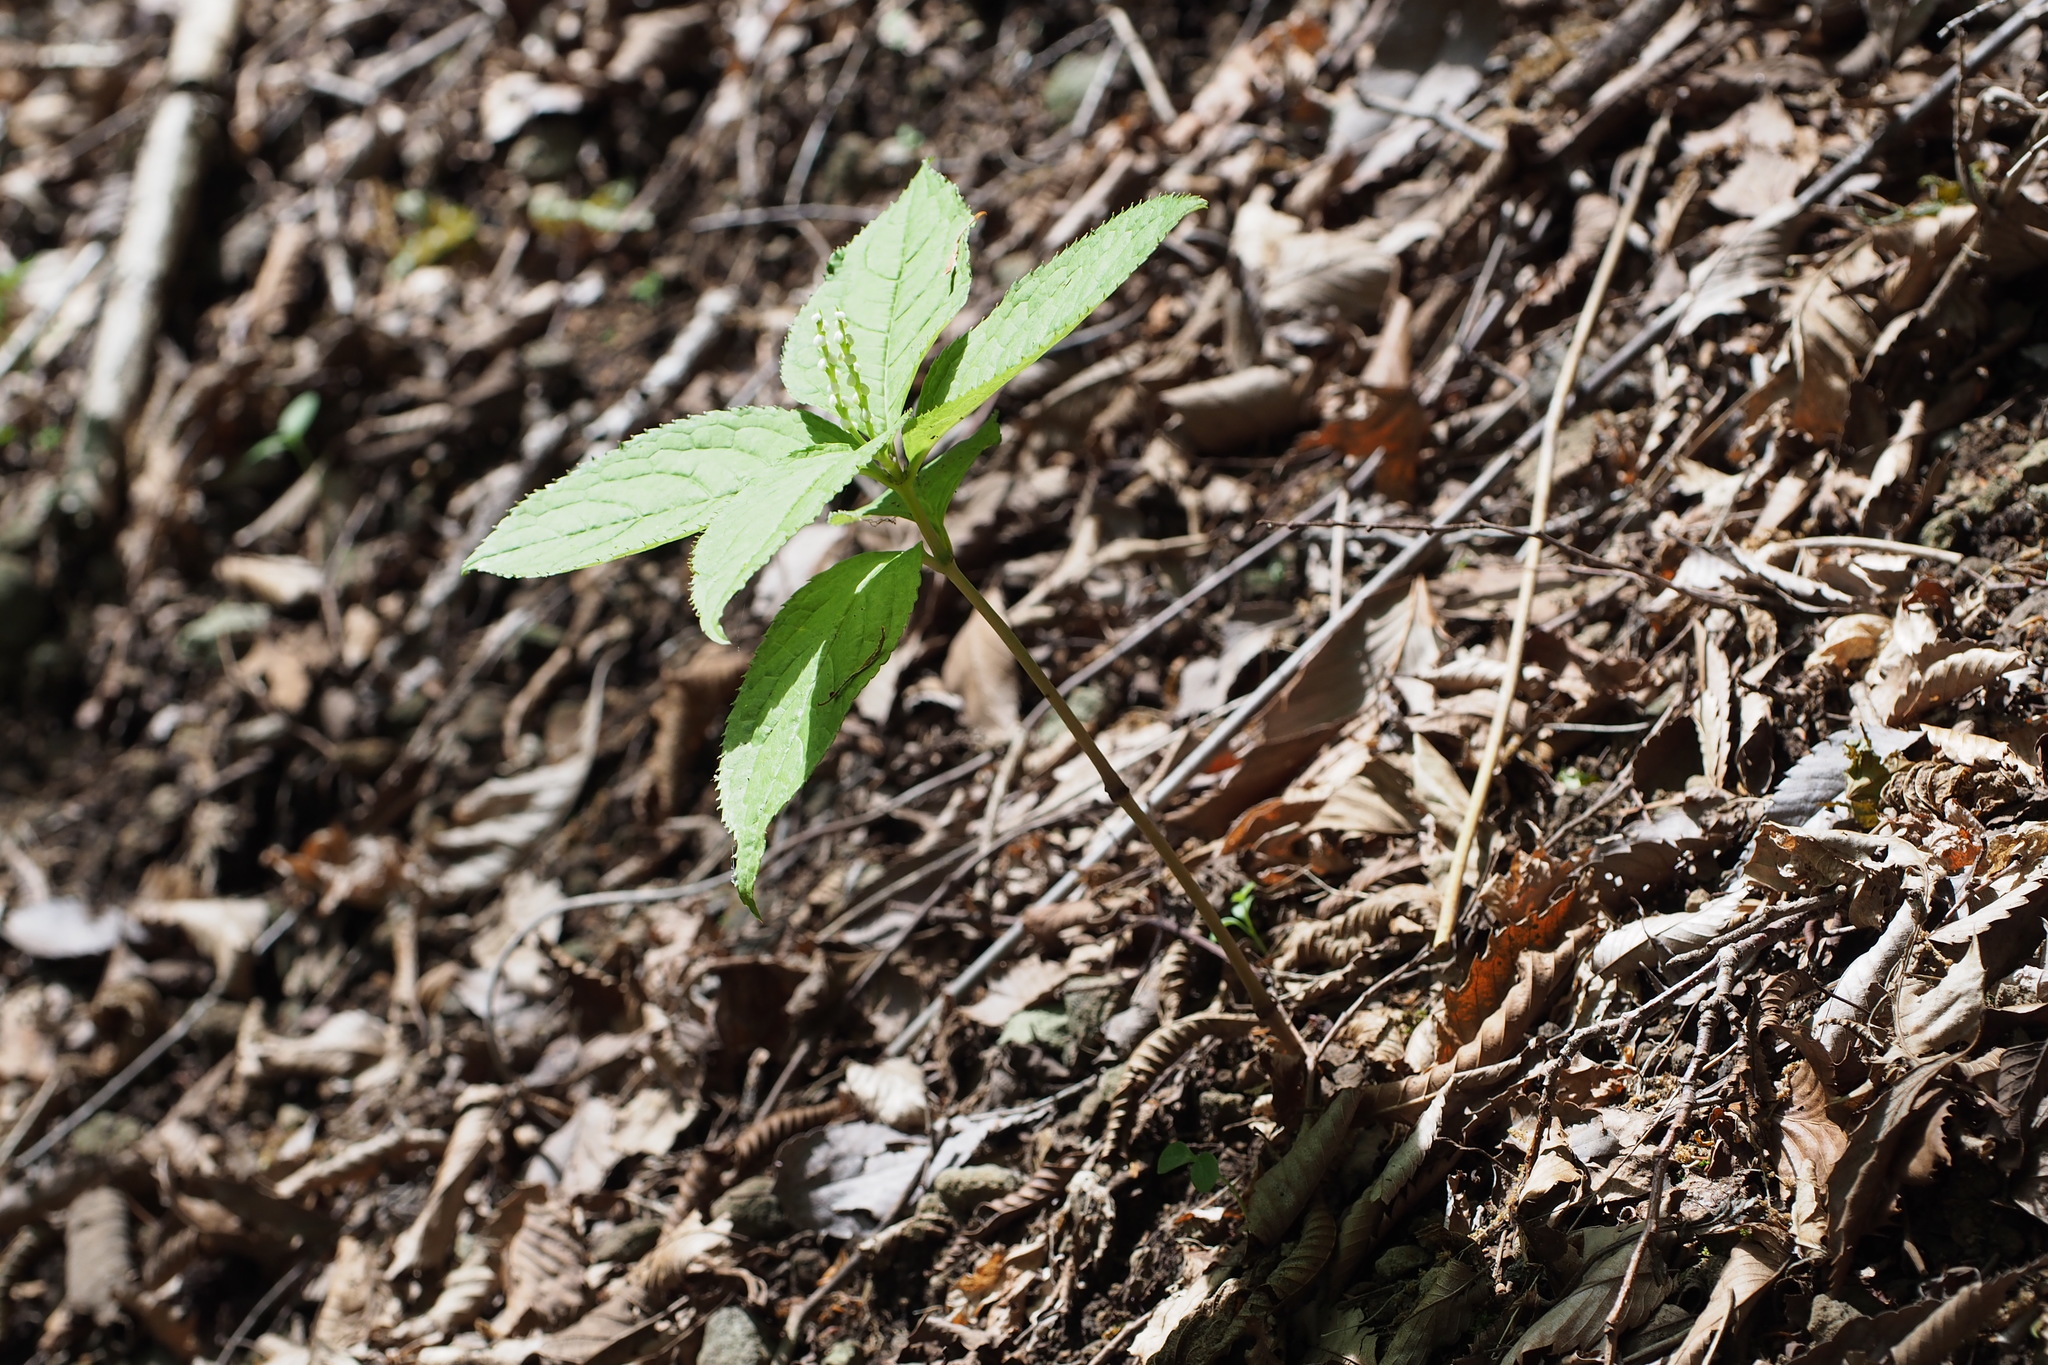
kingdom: Plantae
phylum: Tracheophyta
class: Magnoliopsida
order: Chloranthales
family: Chloranthaceae
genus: Chloranthus
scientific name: Chloranthus serratus
